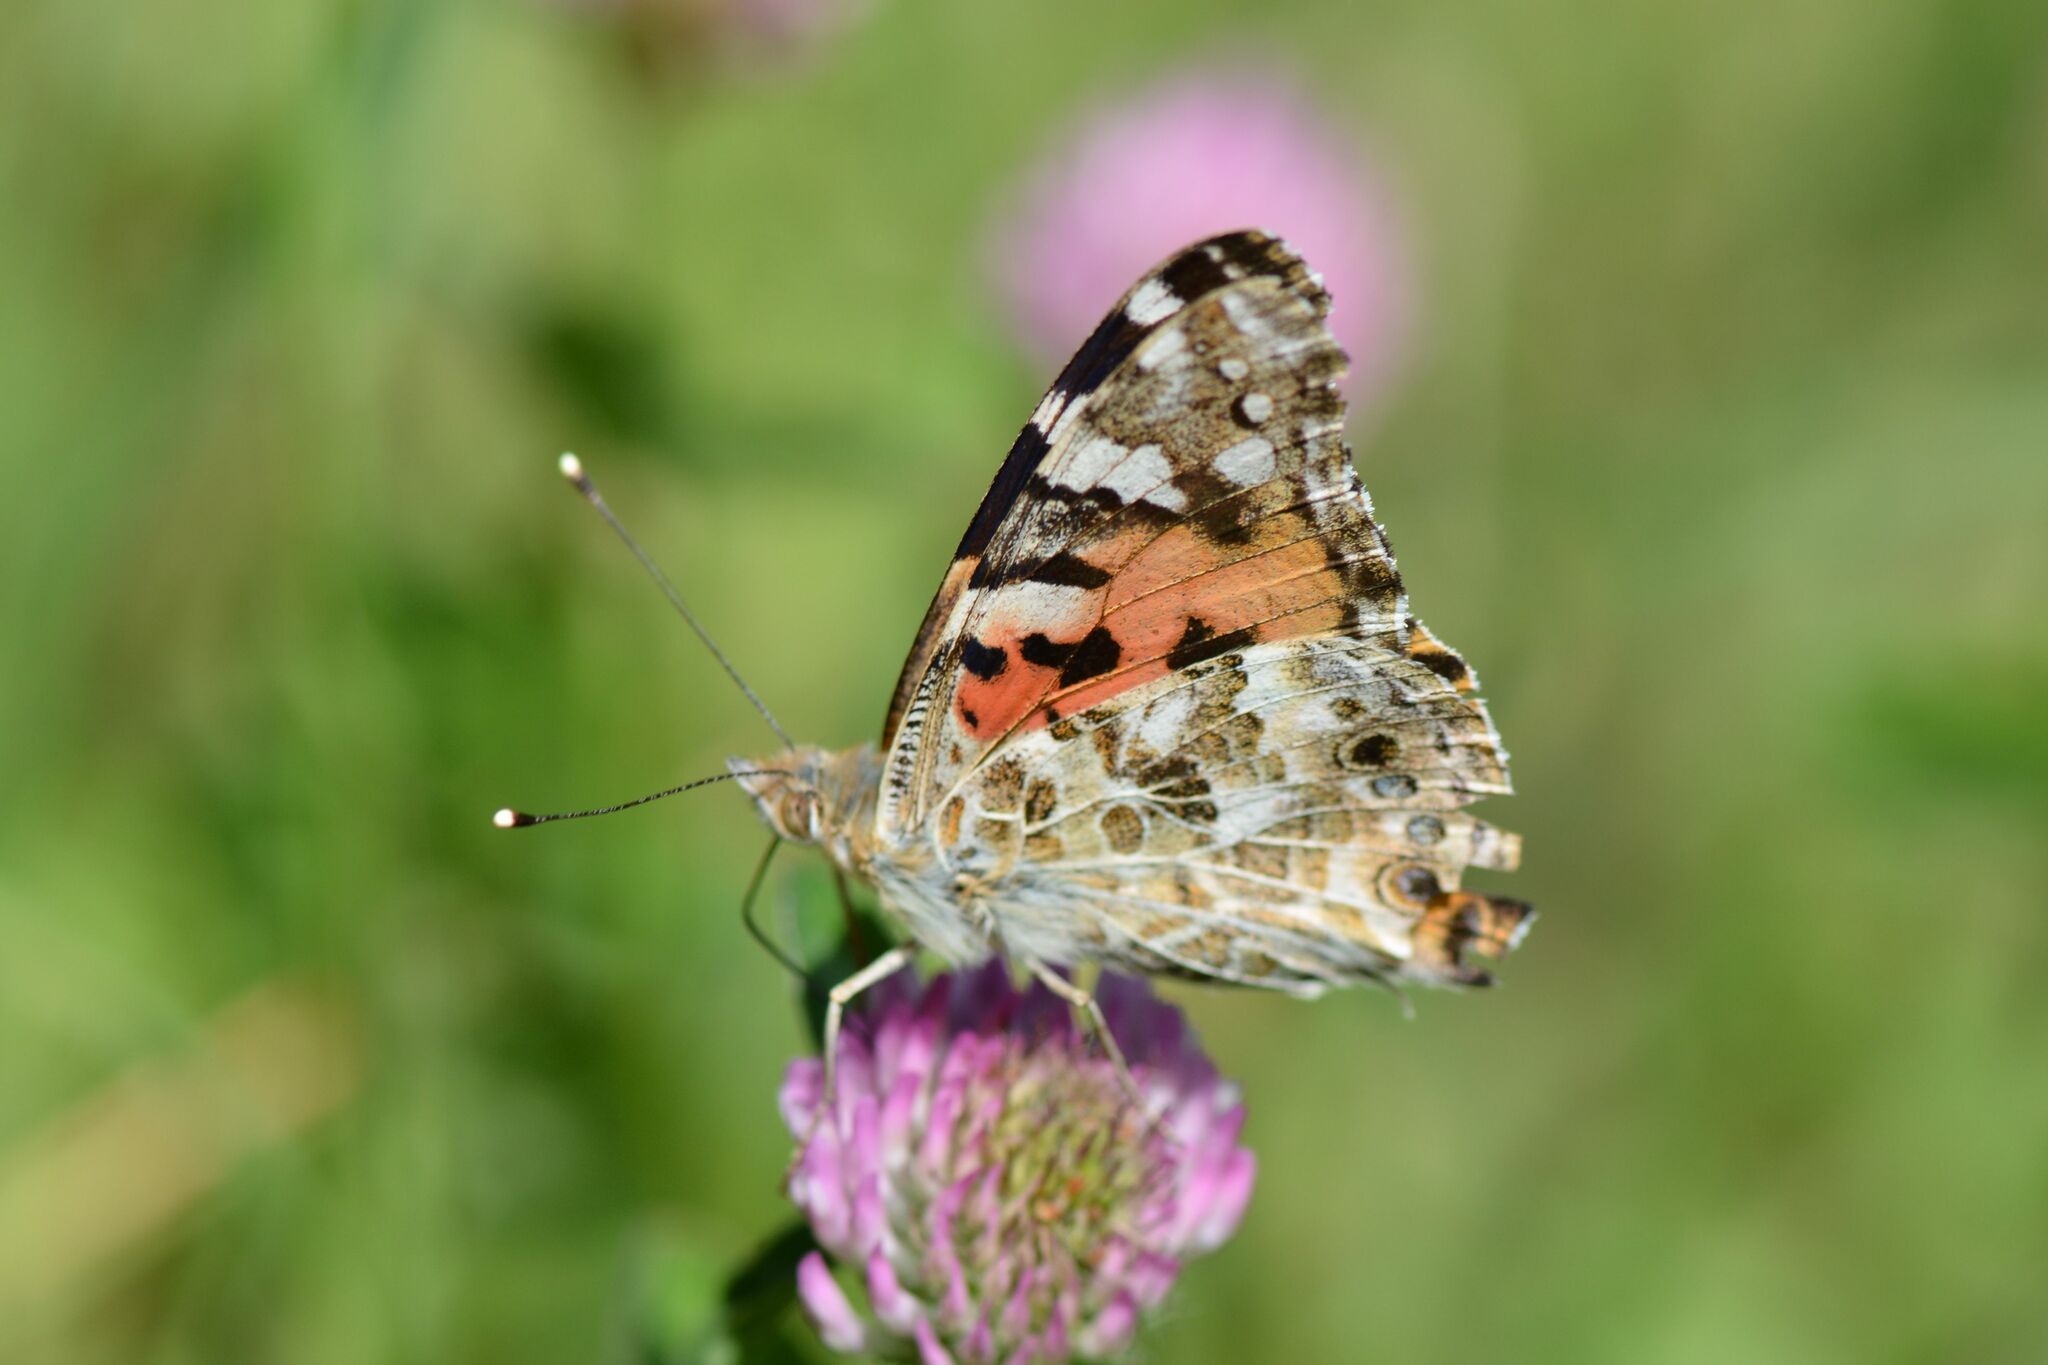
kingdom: Animalia
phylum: Arthropoda
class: Insecta
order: Lepidoptera
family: Nymphalidae
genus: Vanessa
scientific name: Vanessa cardui
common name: Painted lady
